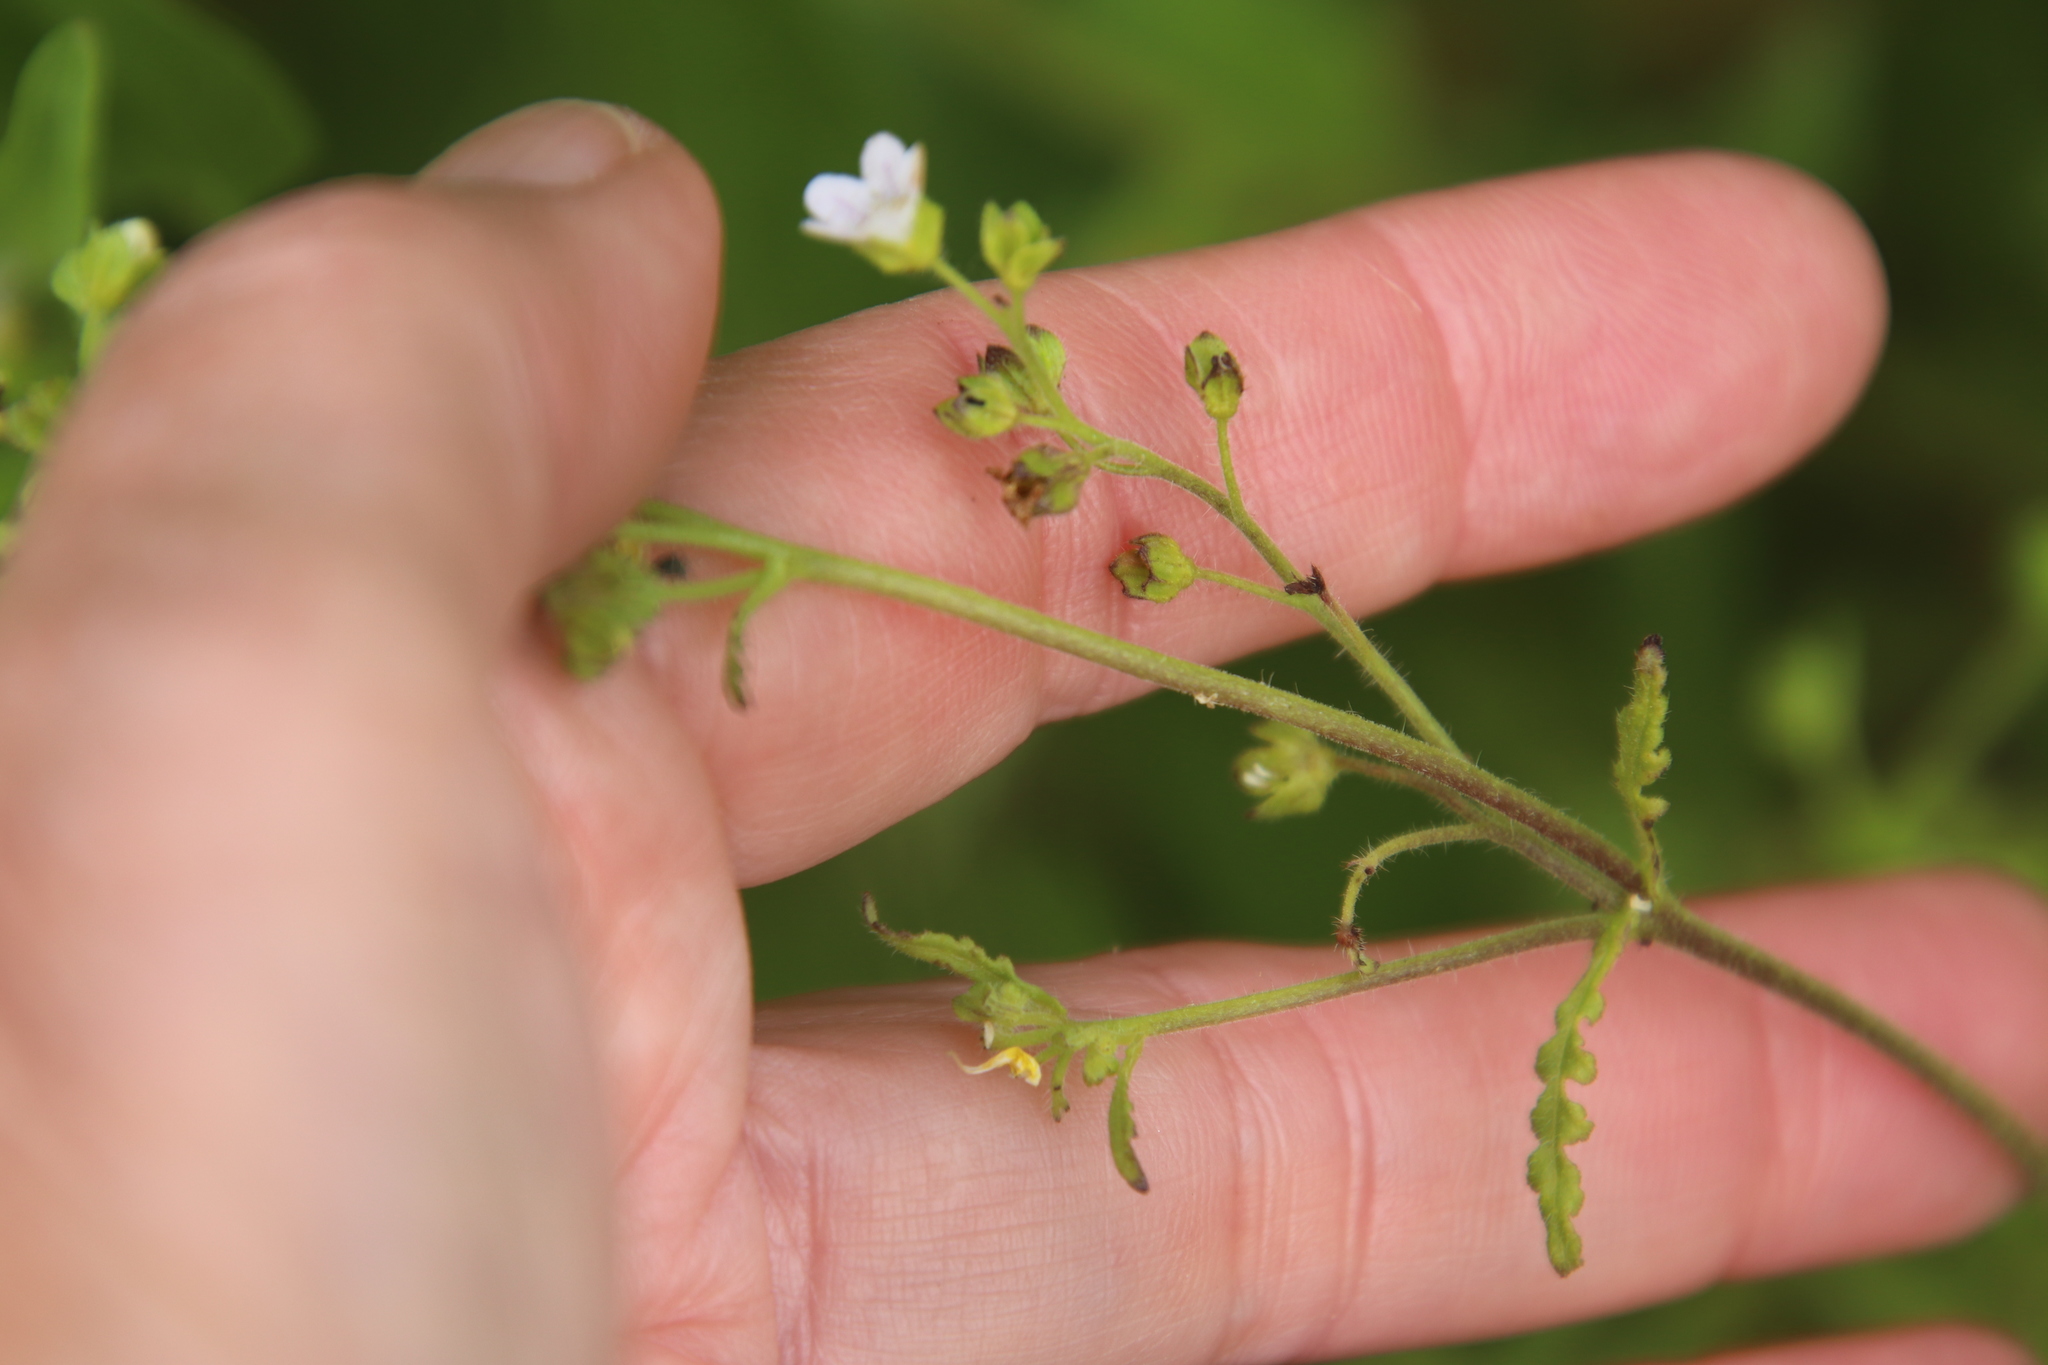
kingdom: Plantae
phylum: Tracheophyta
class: Magnoliopsida
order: Boraginales
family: Hydrophyllaceae
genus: Eucrypta
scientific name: Eucrypta chrysanthemifolia
